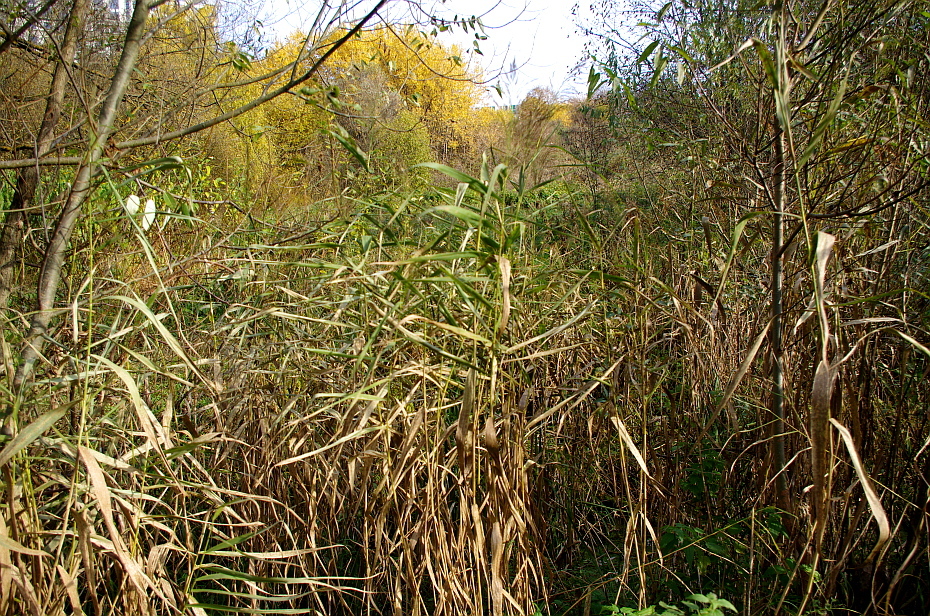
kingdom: Plantae
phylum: Tracheophyta
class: Liliopsida
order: Poales
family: Poaceae
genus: Phragmites
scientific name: Phragmites australis
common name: Common reed
